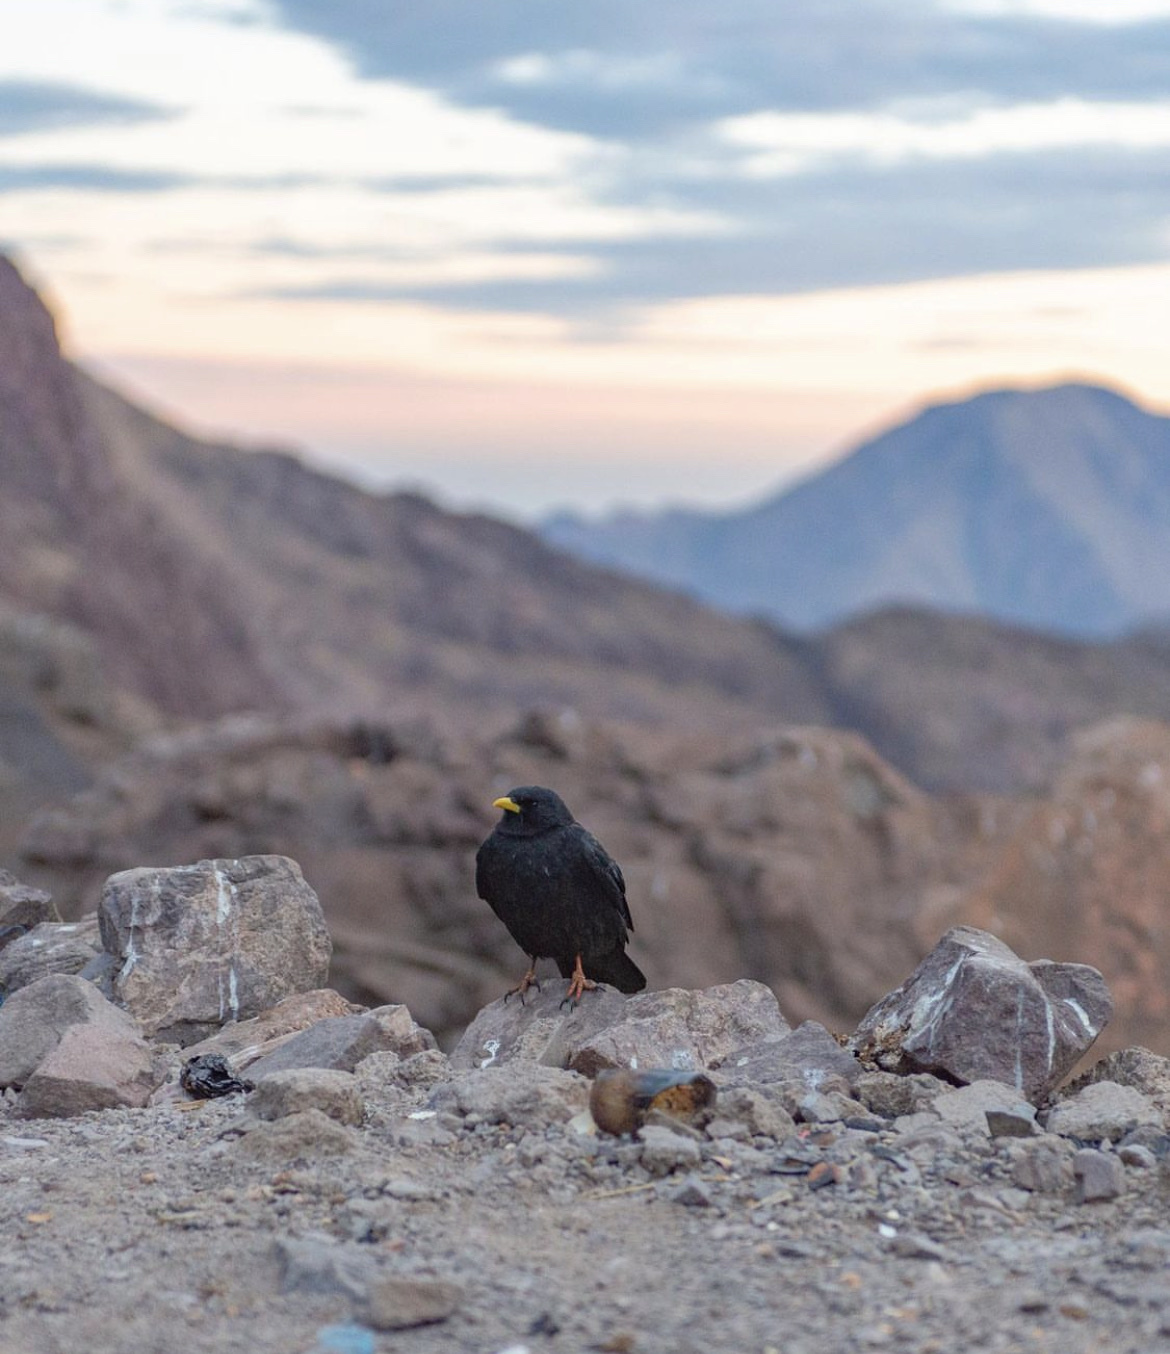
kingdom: Animalia
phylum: Chordata
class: Aves
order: Passeriformes
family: Corvidae
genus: Pyrrhocorax
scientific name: Pyrrhocorax graculus
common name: Alpine chough
